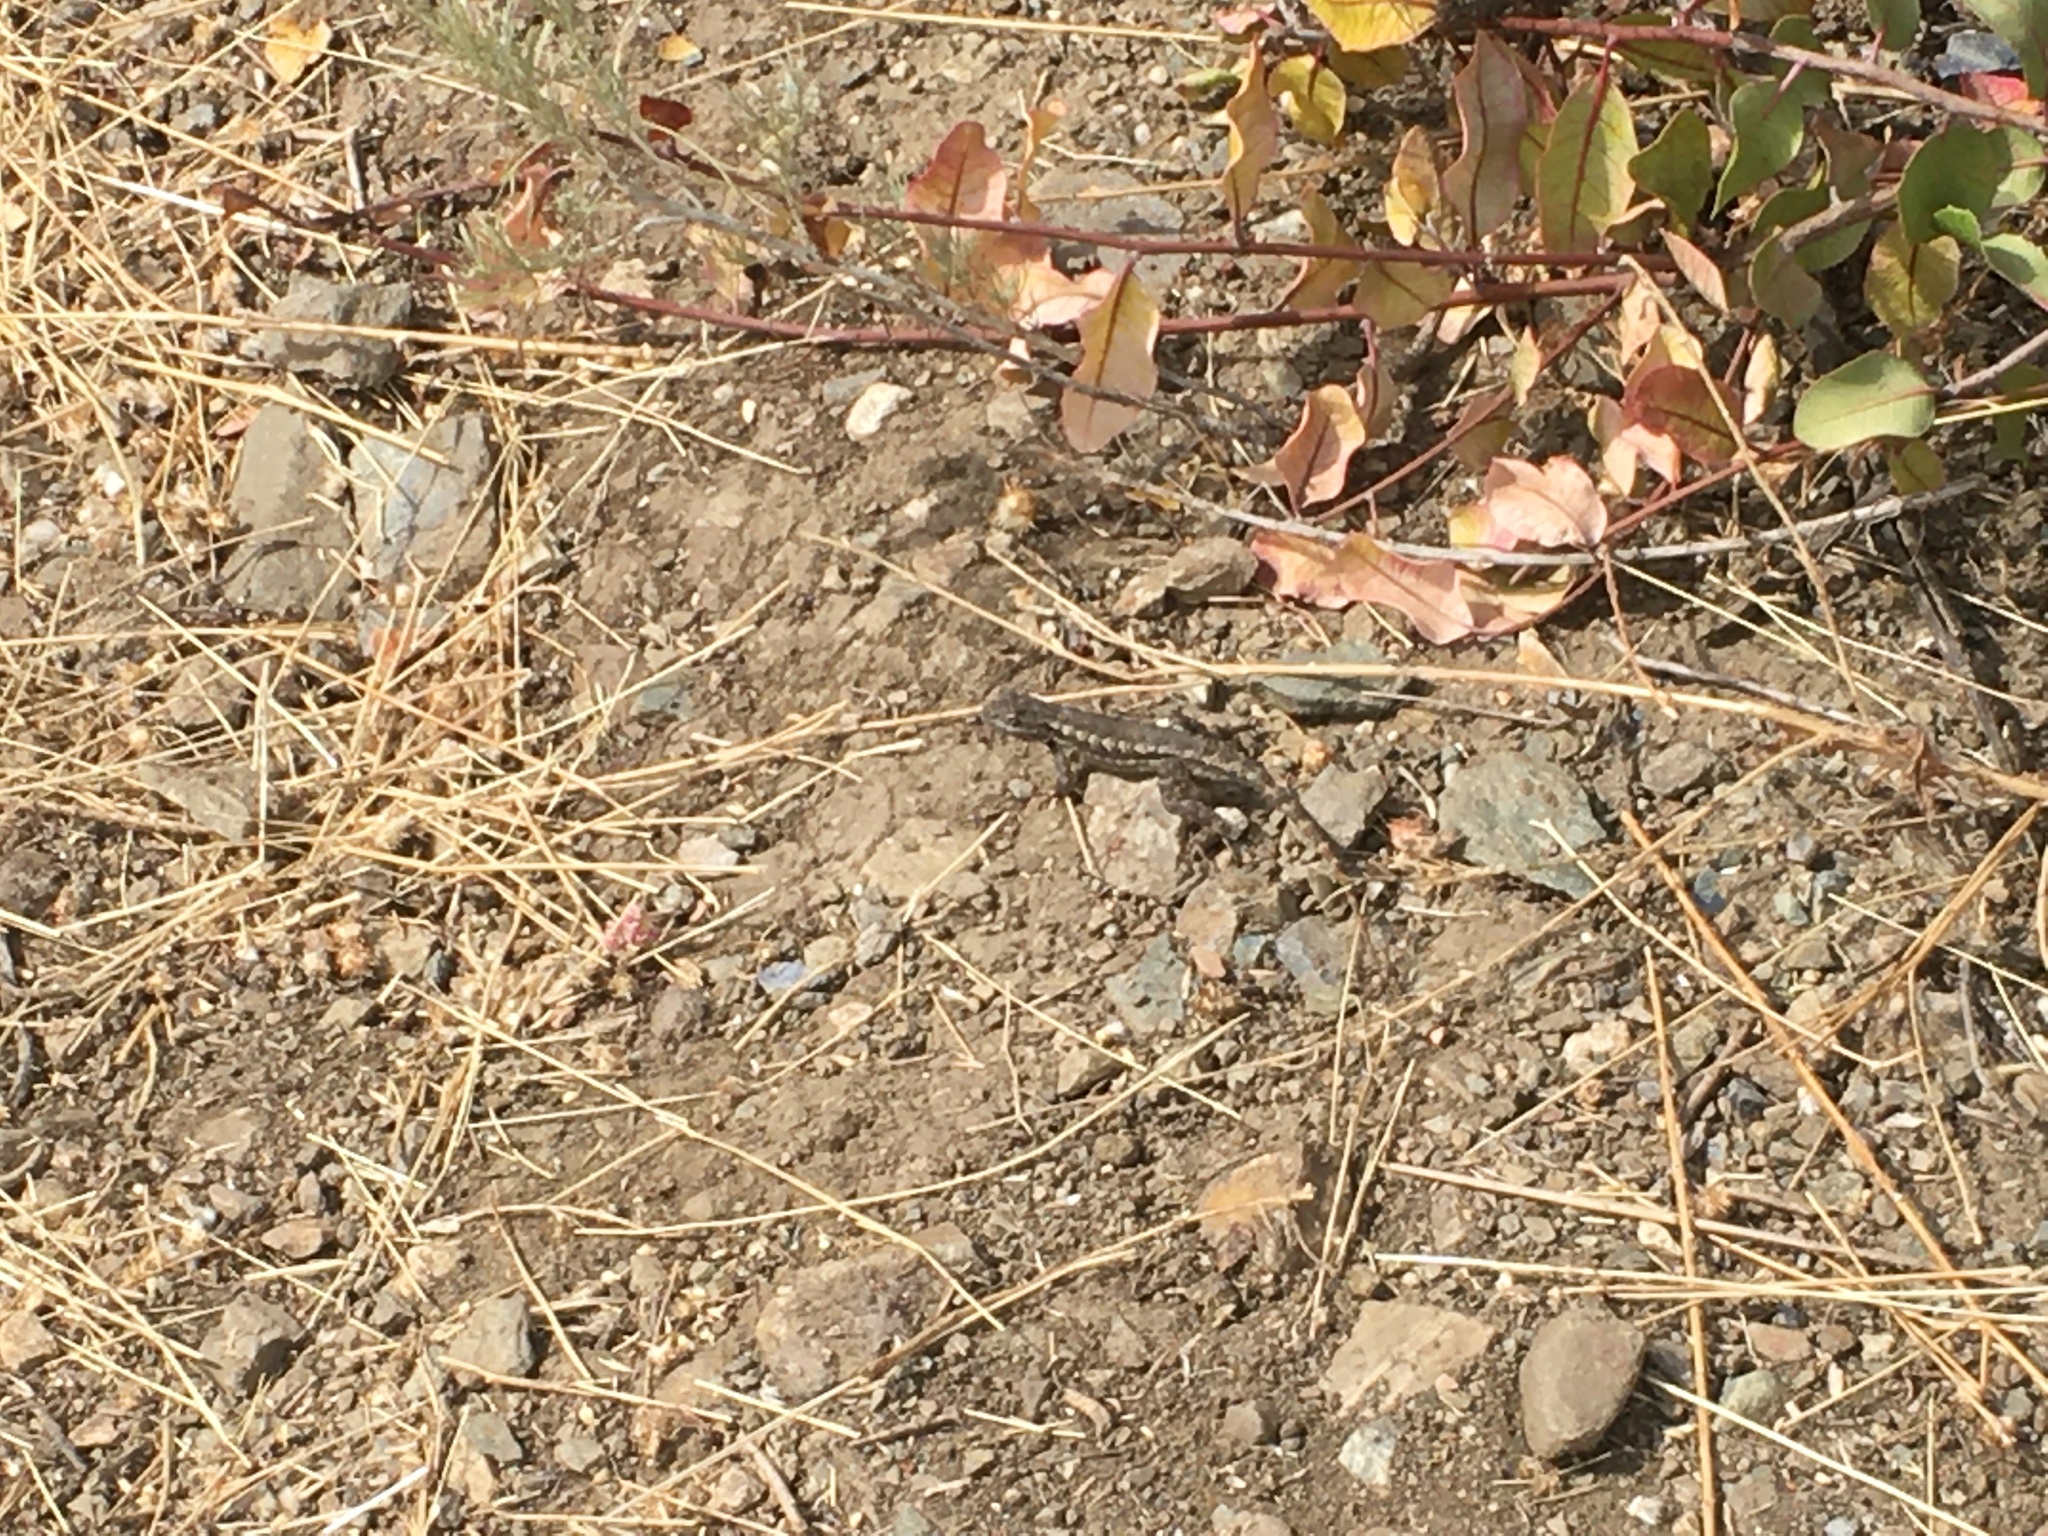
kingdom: Animalia
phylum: Chordata
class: Squamata
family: Phrynosomatidae
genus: Sceloporus
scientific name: Sceloporus occidentalis
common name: Western fence lizard
